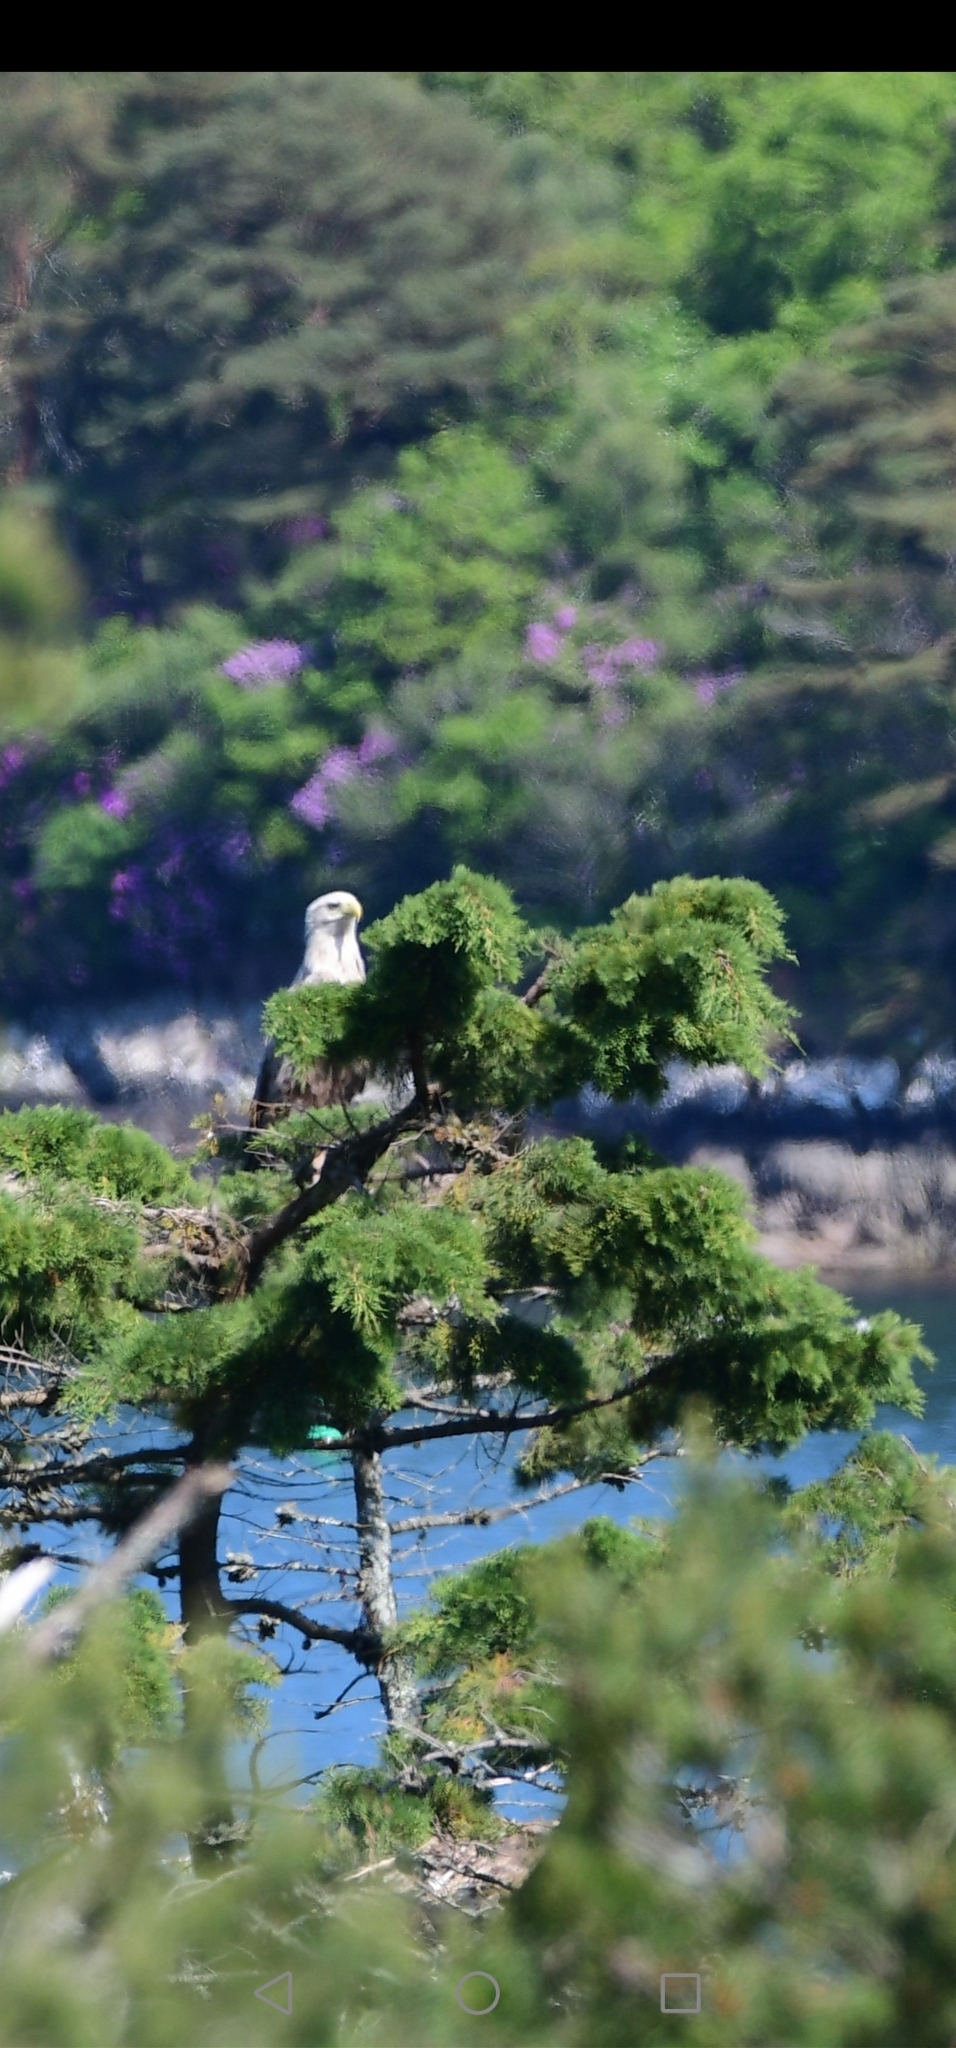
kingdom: Animalia
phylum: Chordata
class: Aves
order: Accipitriformes
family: Accipitridae
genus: Haliaeetus
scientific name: Haliaeetus albicilla
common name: White-tailed eagle
